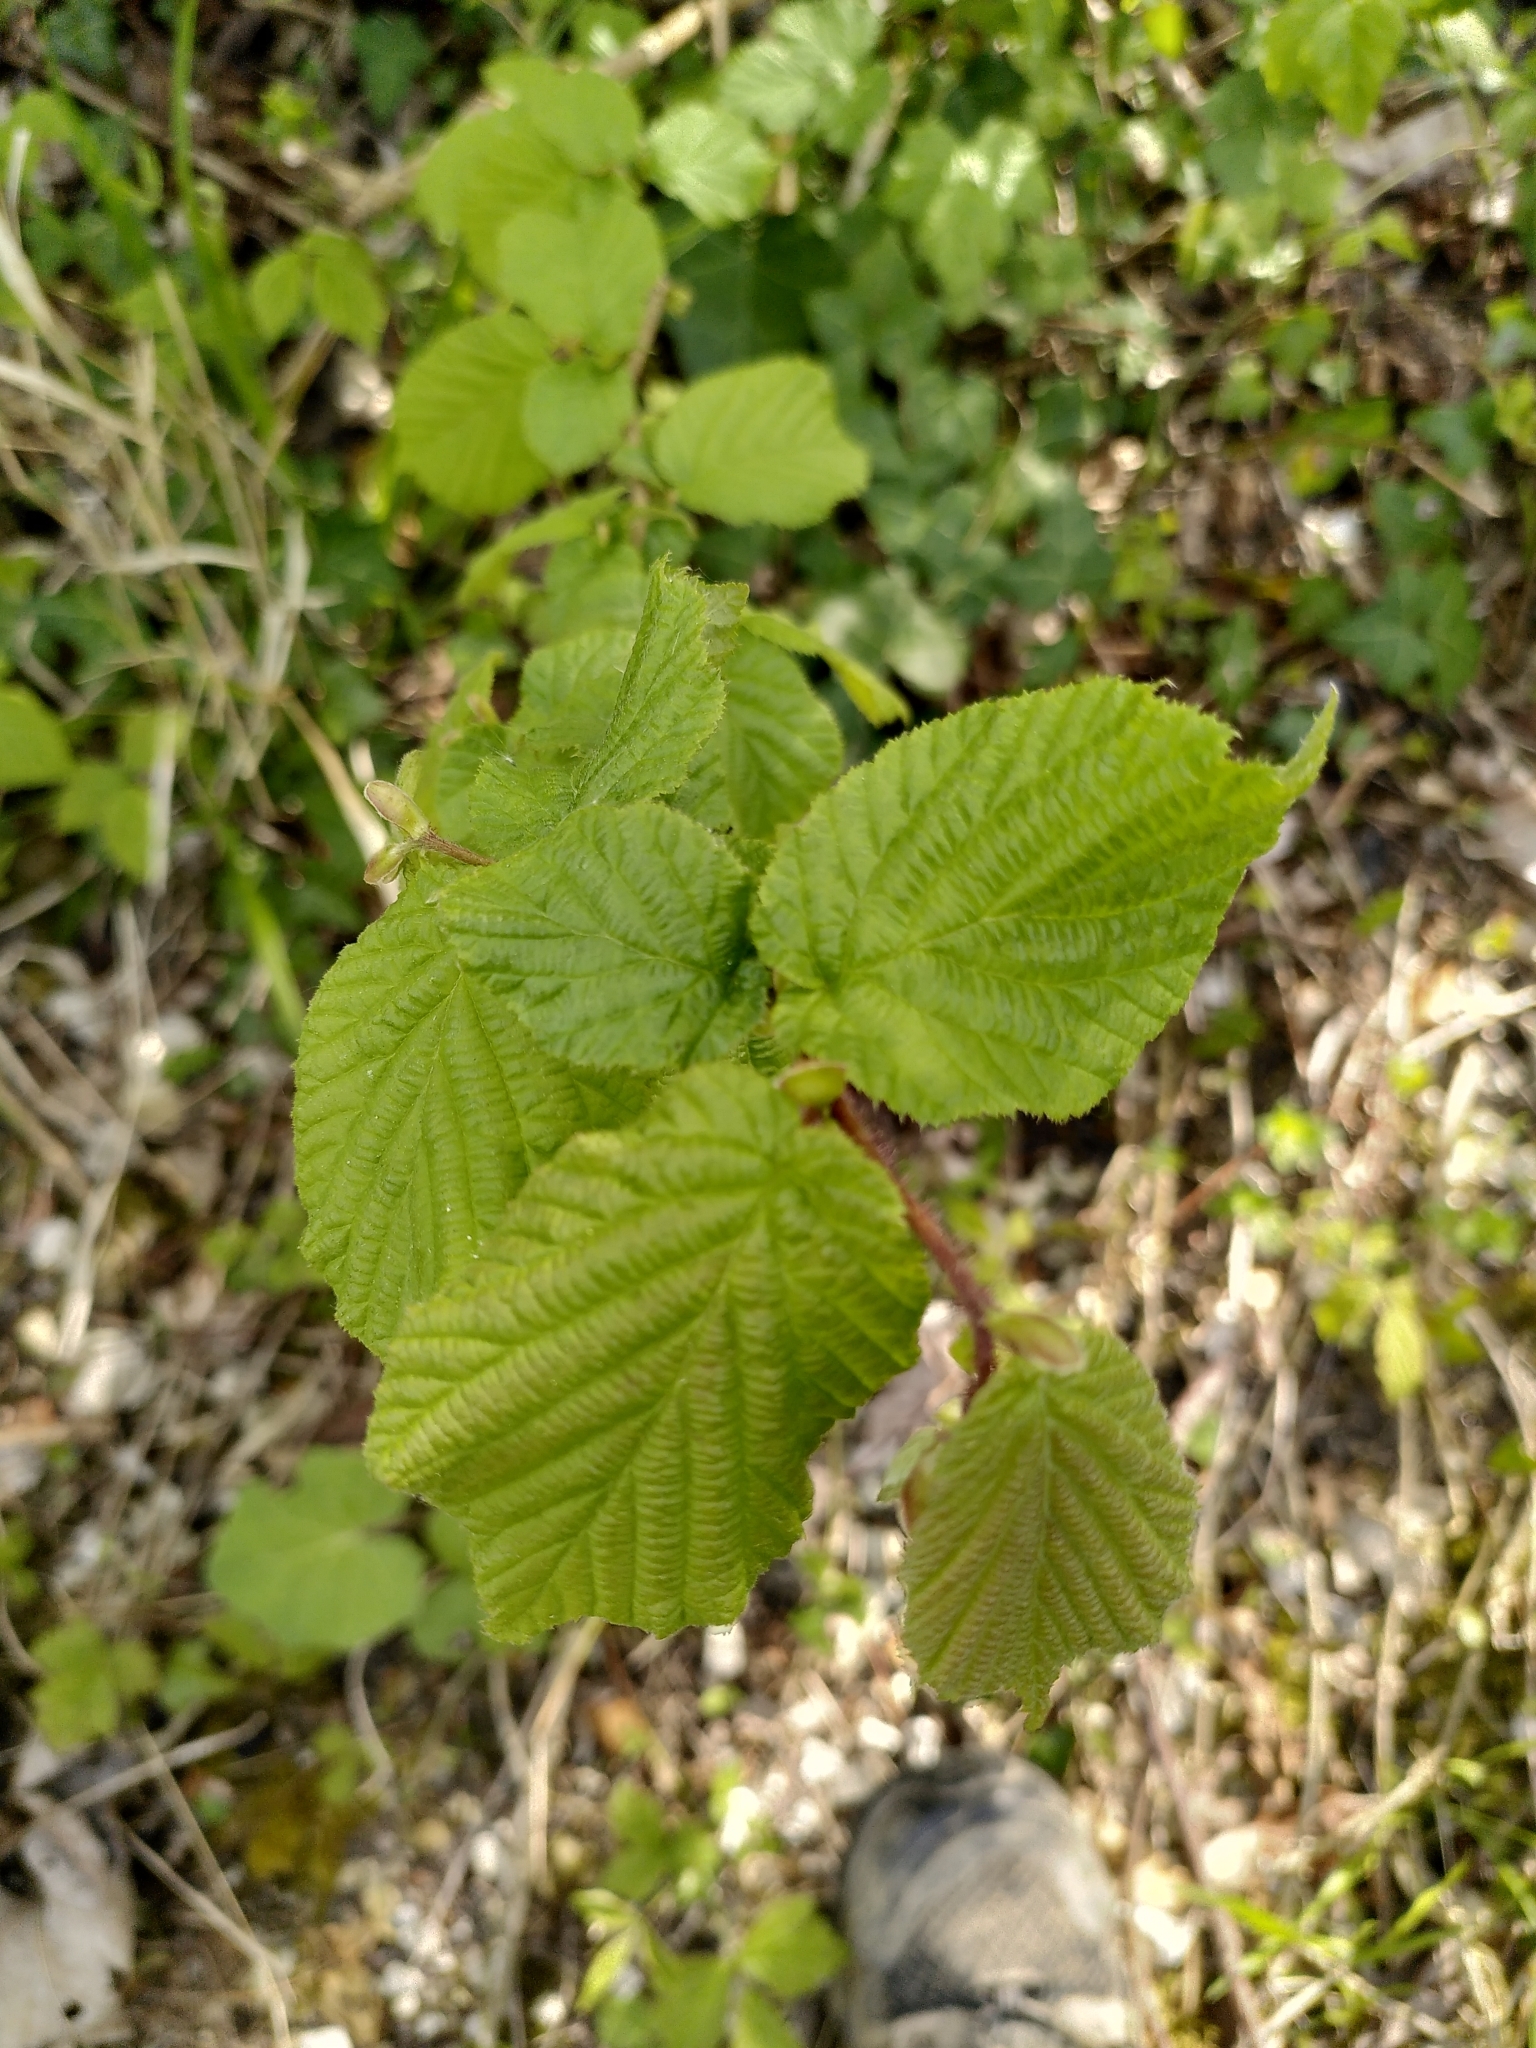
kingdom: Plantae
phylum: Tracheophyta
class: Magnoliopsida
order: Fagales
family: Betulaceae
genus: Corylus
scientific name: Corylus avellana
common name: European hazel
